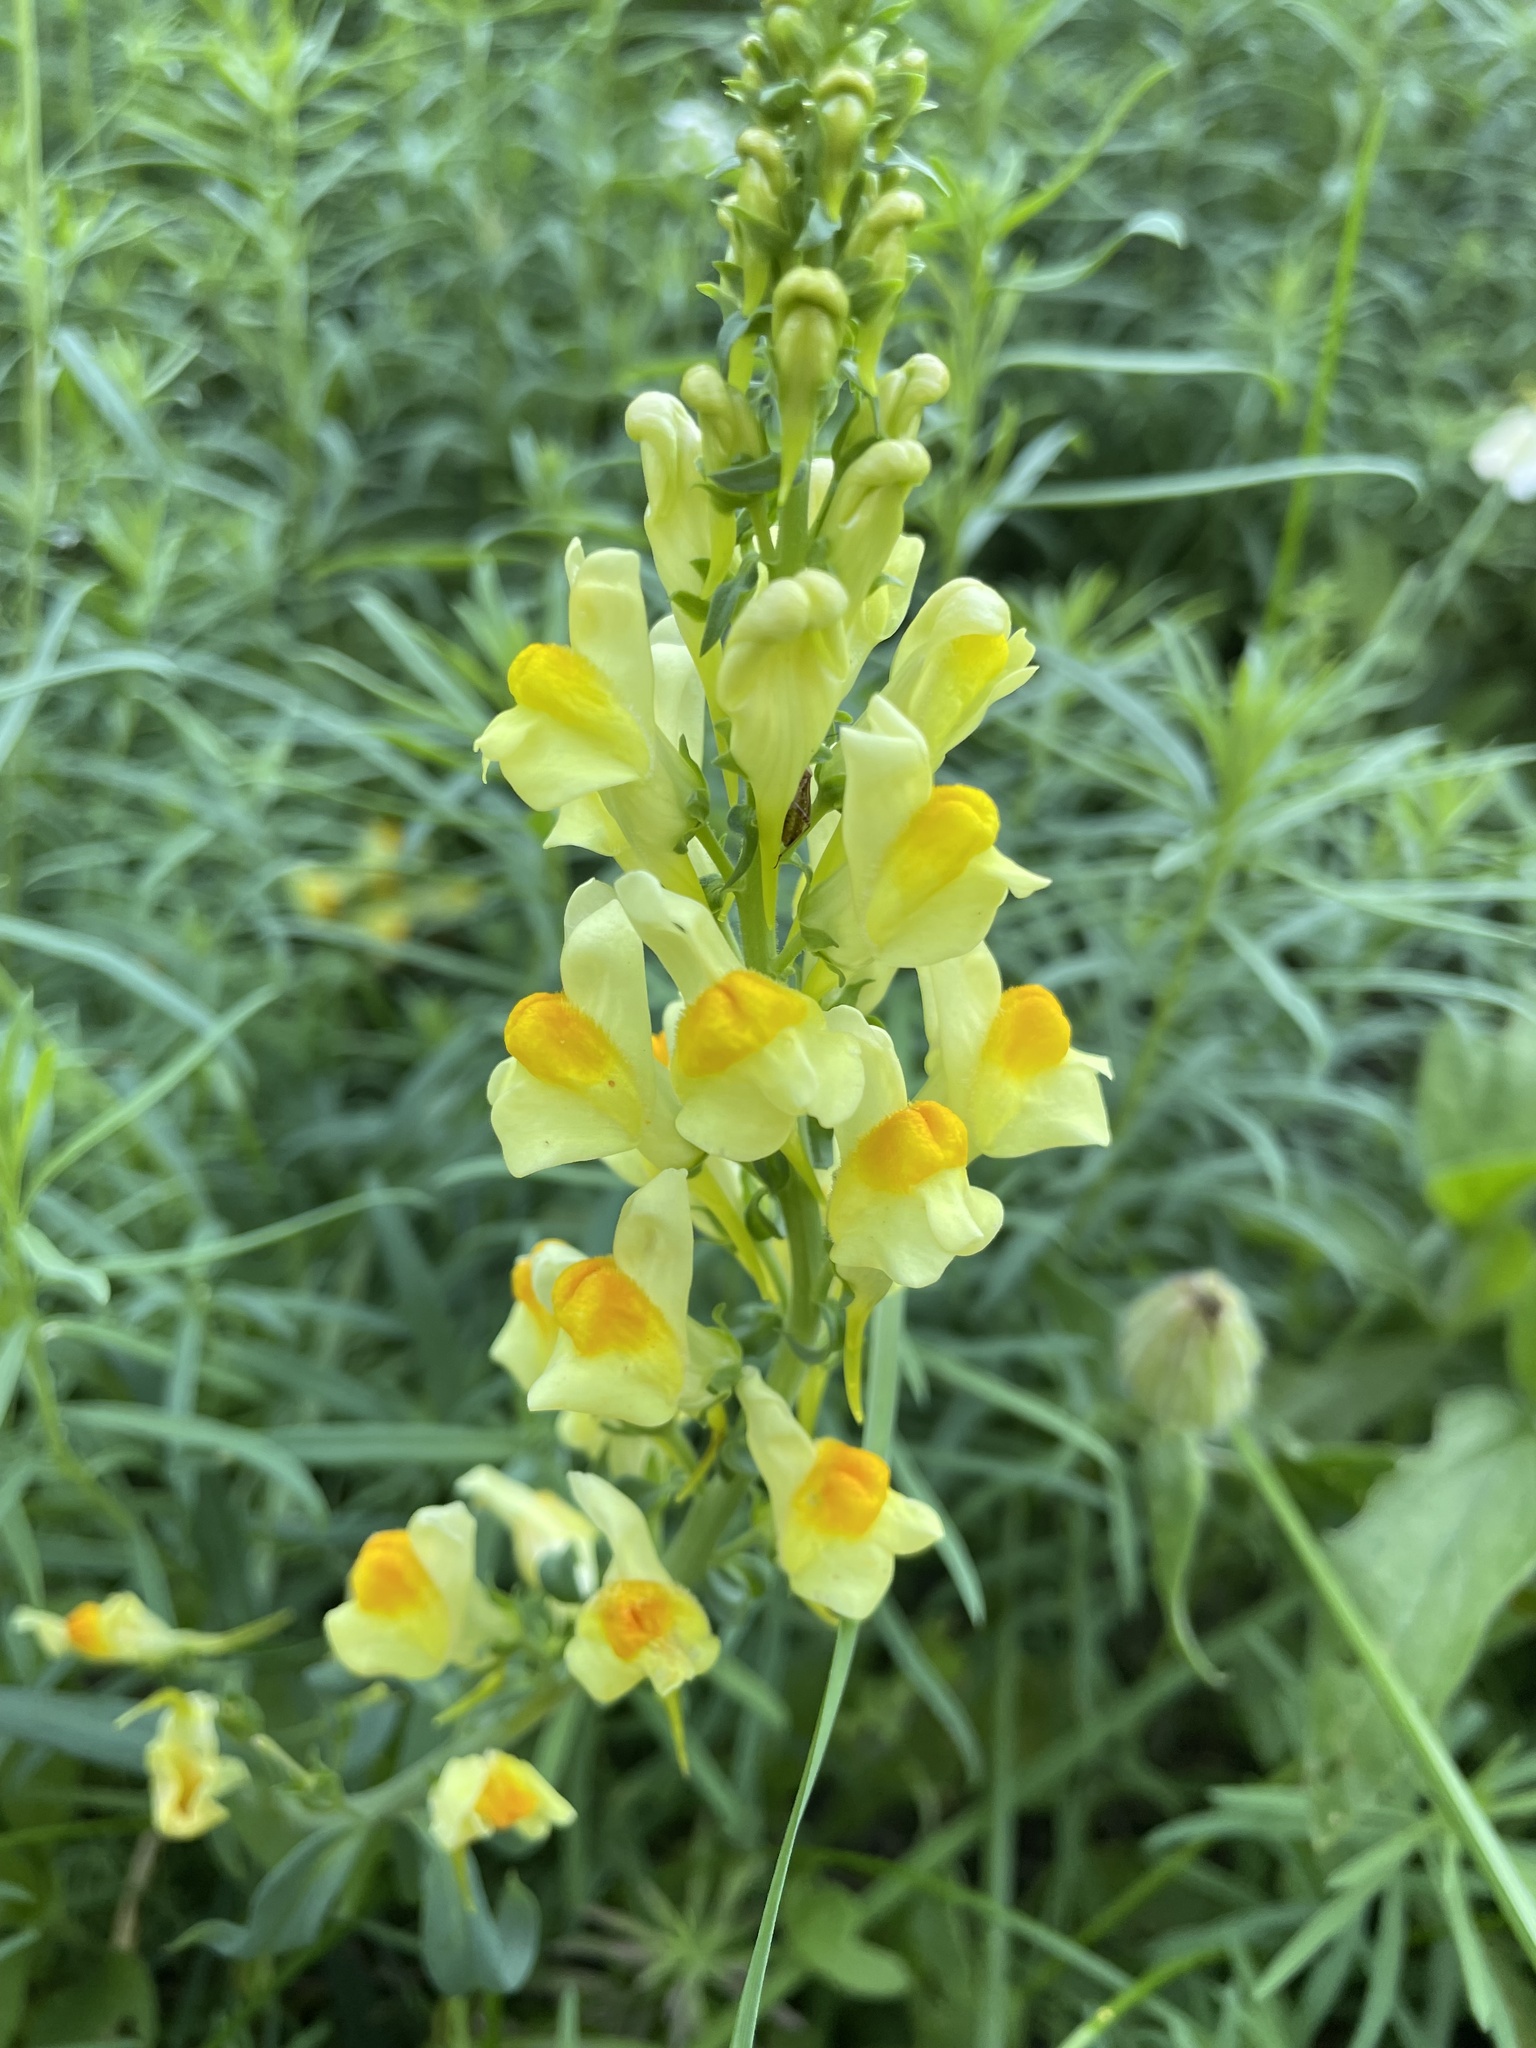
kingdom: Plantae
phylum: Tracheophyta
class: Magnoliopsida
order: Lamiales
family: Plantaginaceae
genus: Linaria
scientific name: Linaria vulgaris
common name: Butter and eggs
